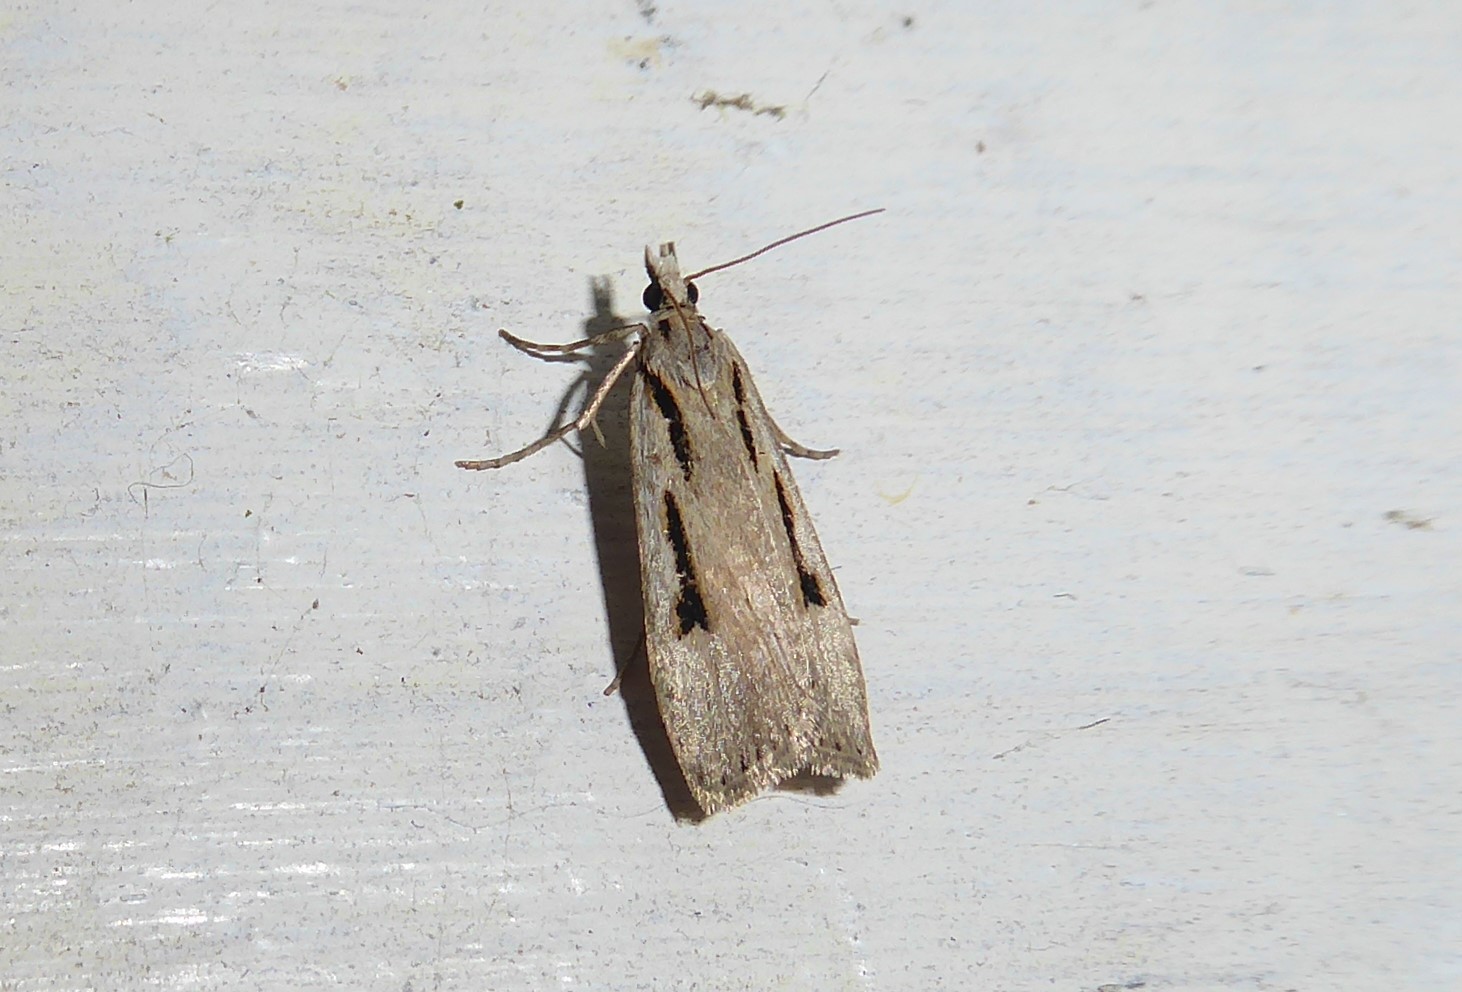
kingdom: Animalia
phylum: Arthropoda
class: Insecta
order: Lepidoptera
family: Crambidae
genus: Scoparia
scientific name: Scoparia rotuellus
